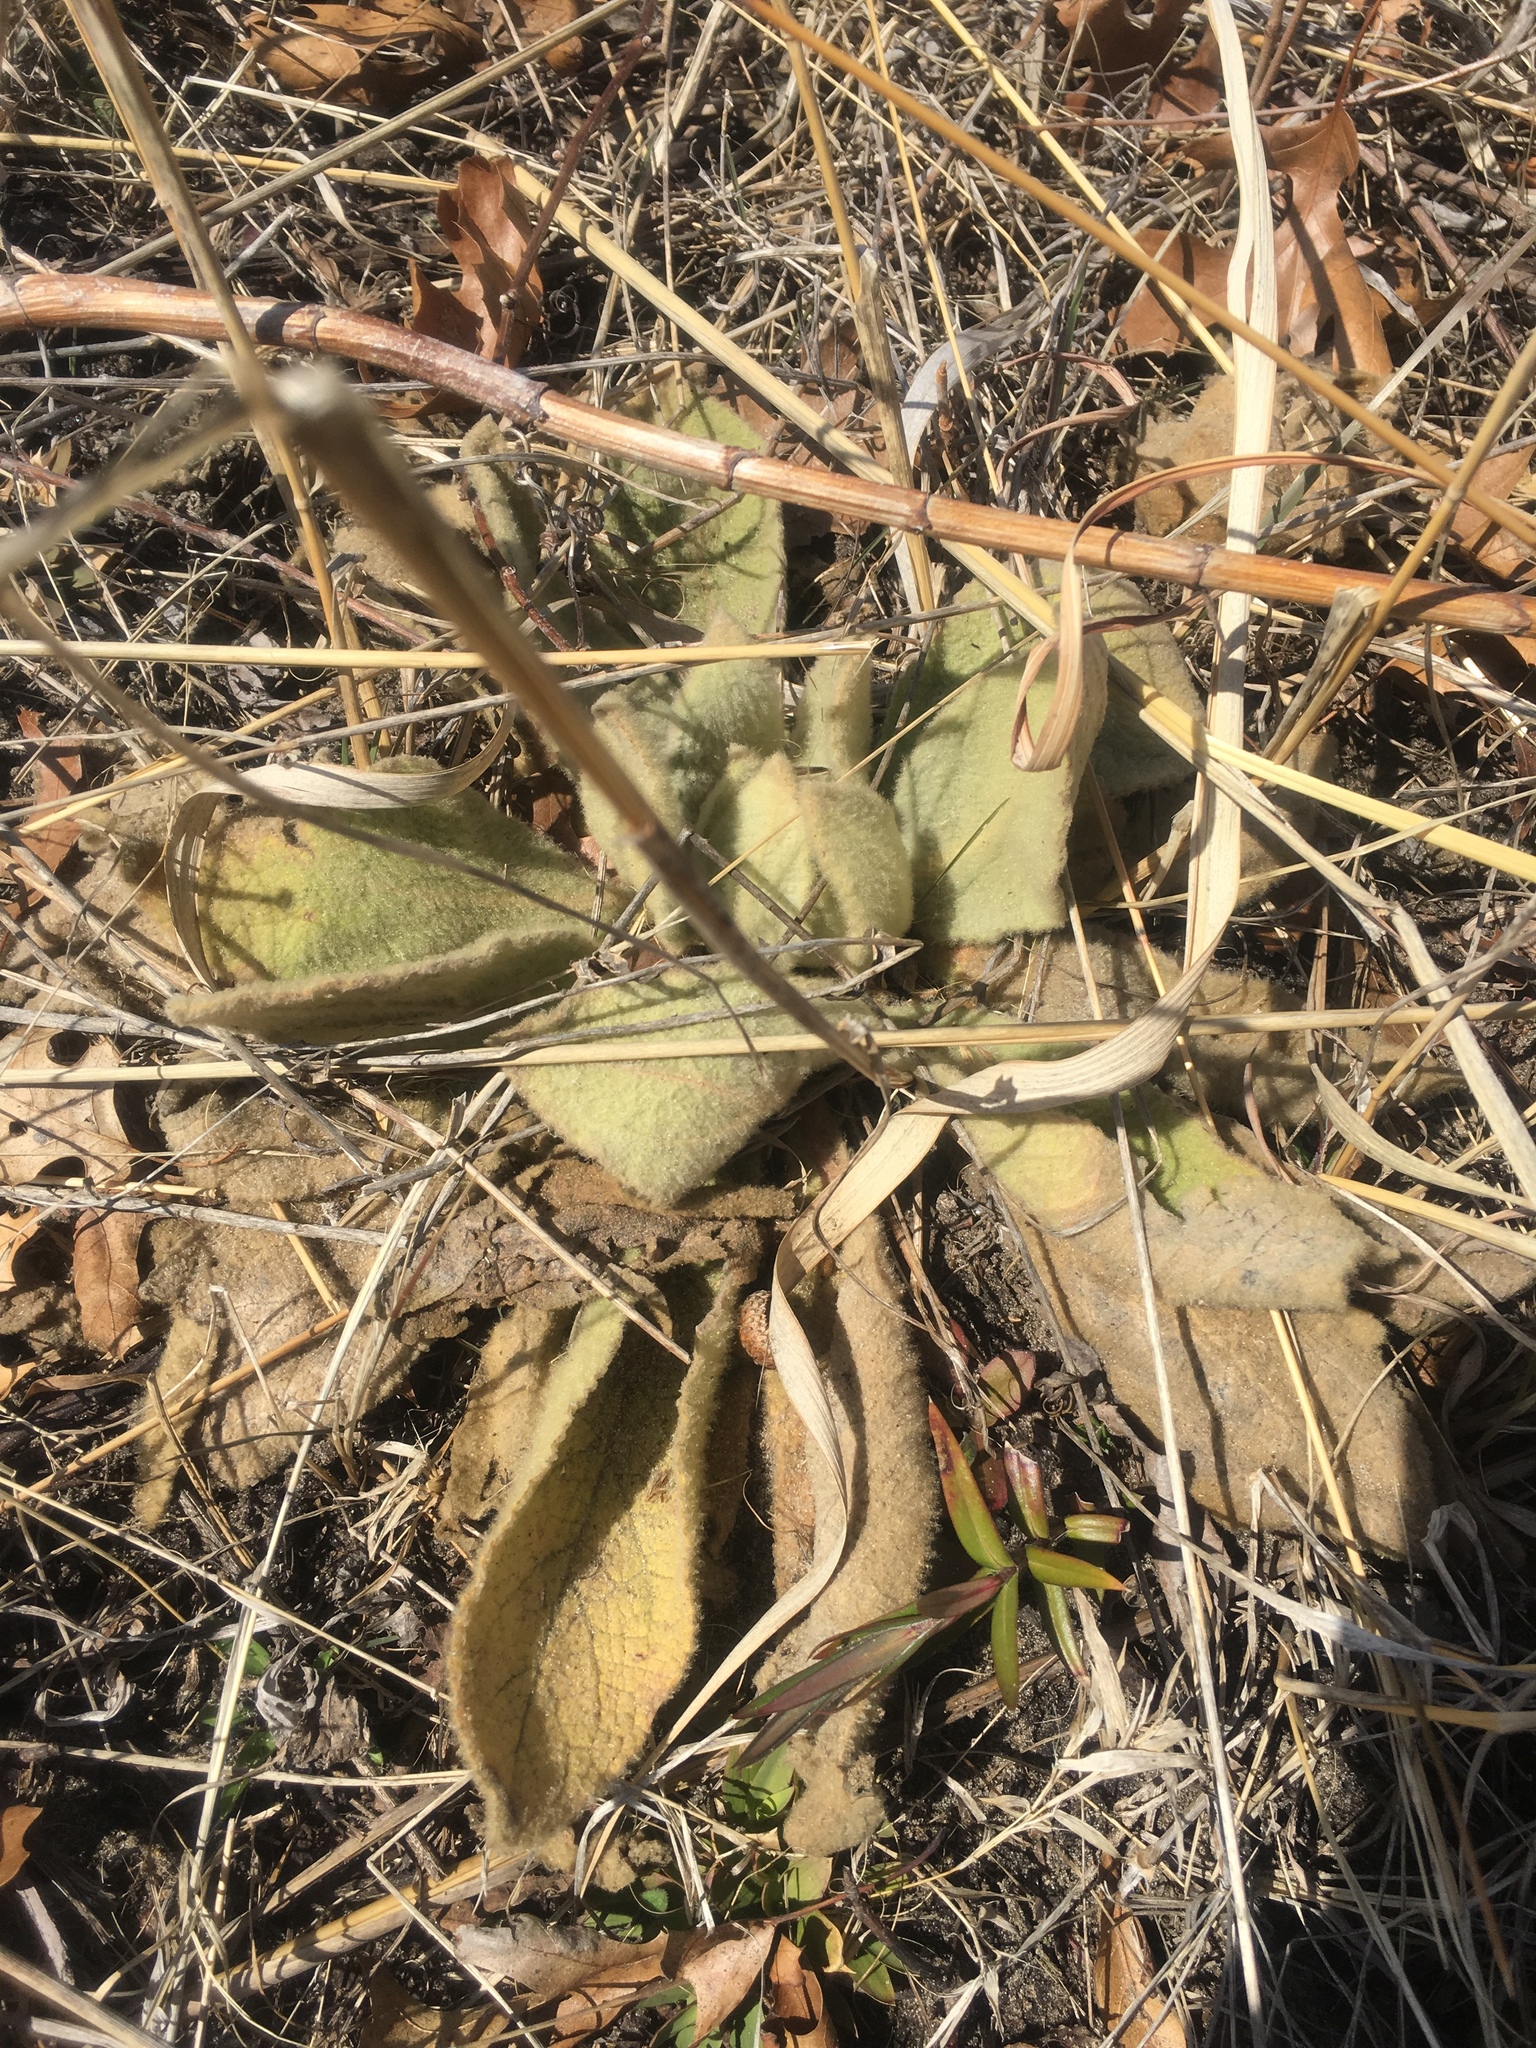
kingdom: Plantae
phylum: Tracheophyta
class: Magnoliopsida
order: Lamiales
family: Scrophulariaceae
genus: Verbascum
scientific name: Verbascum thapsus
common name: Common mullein
